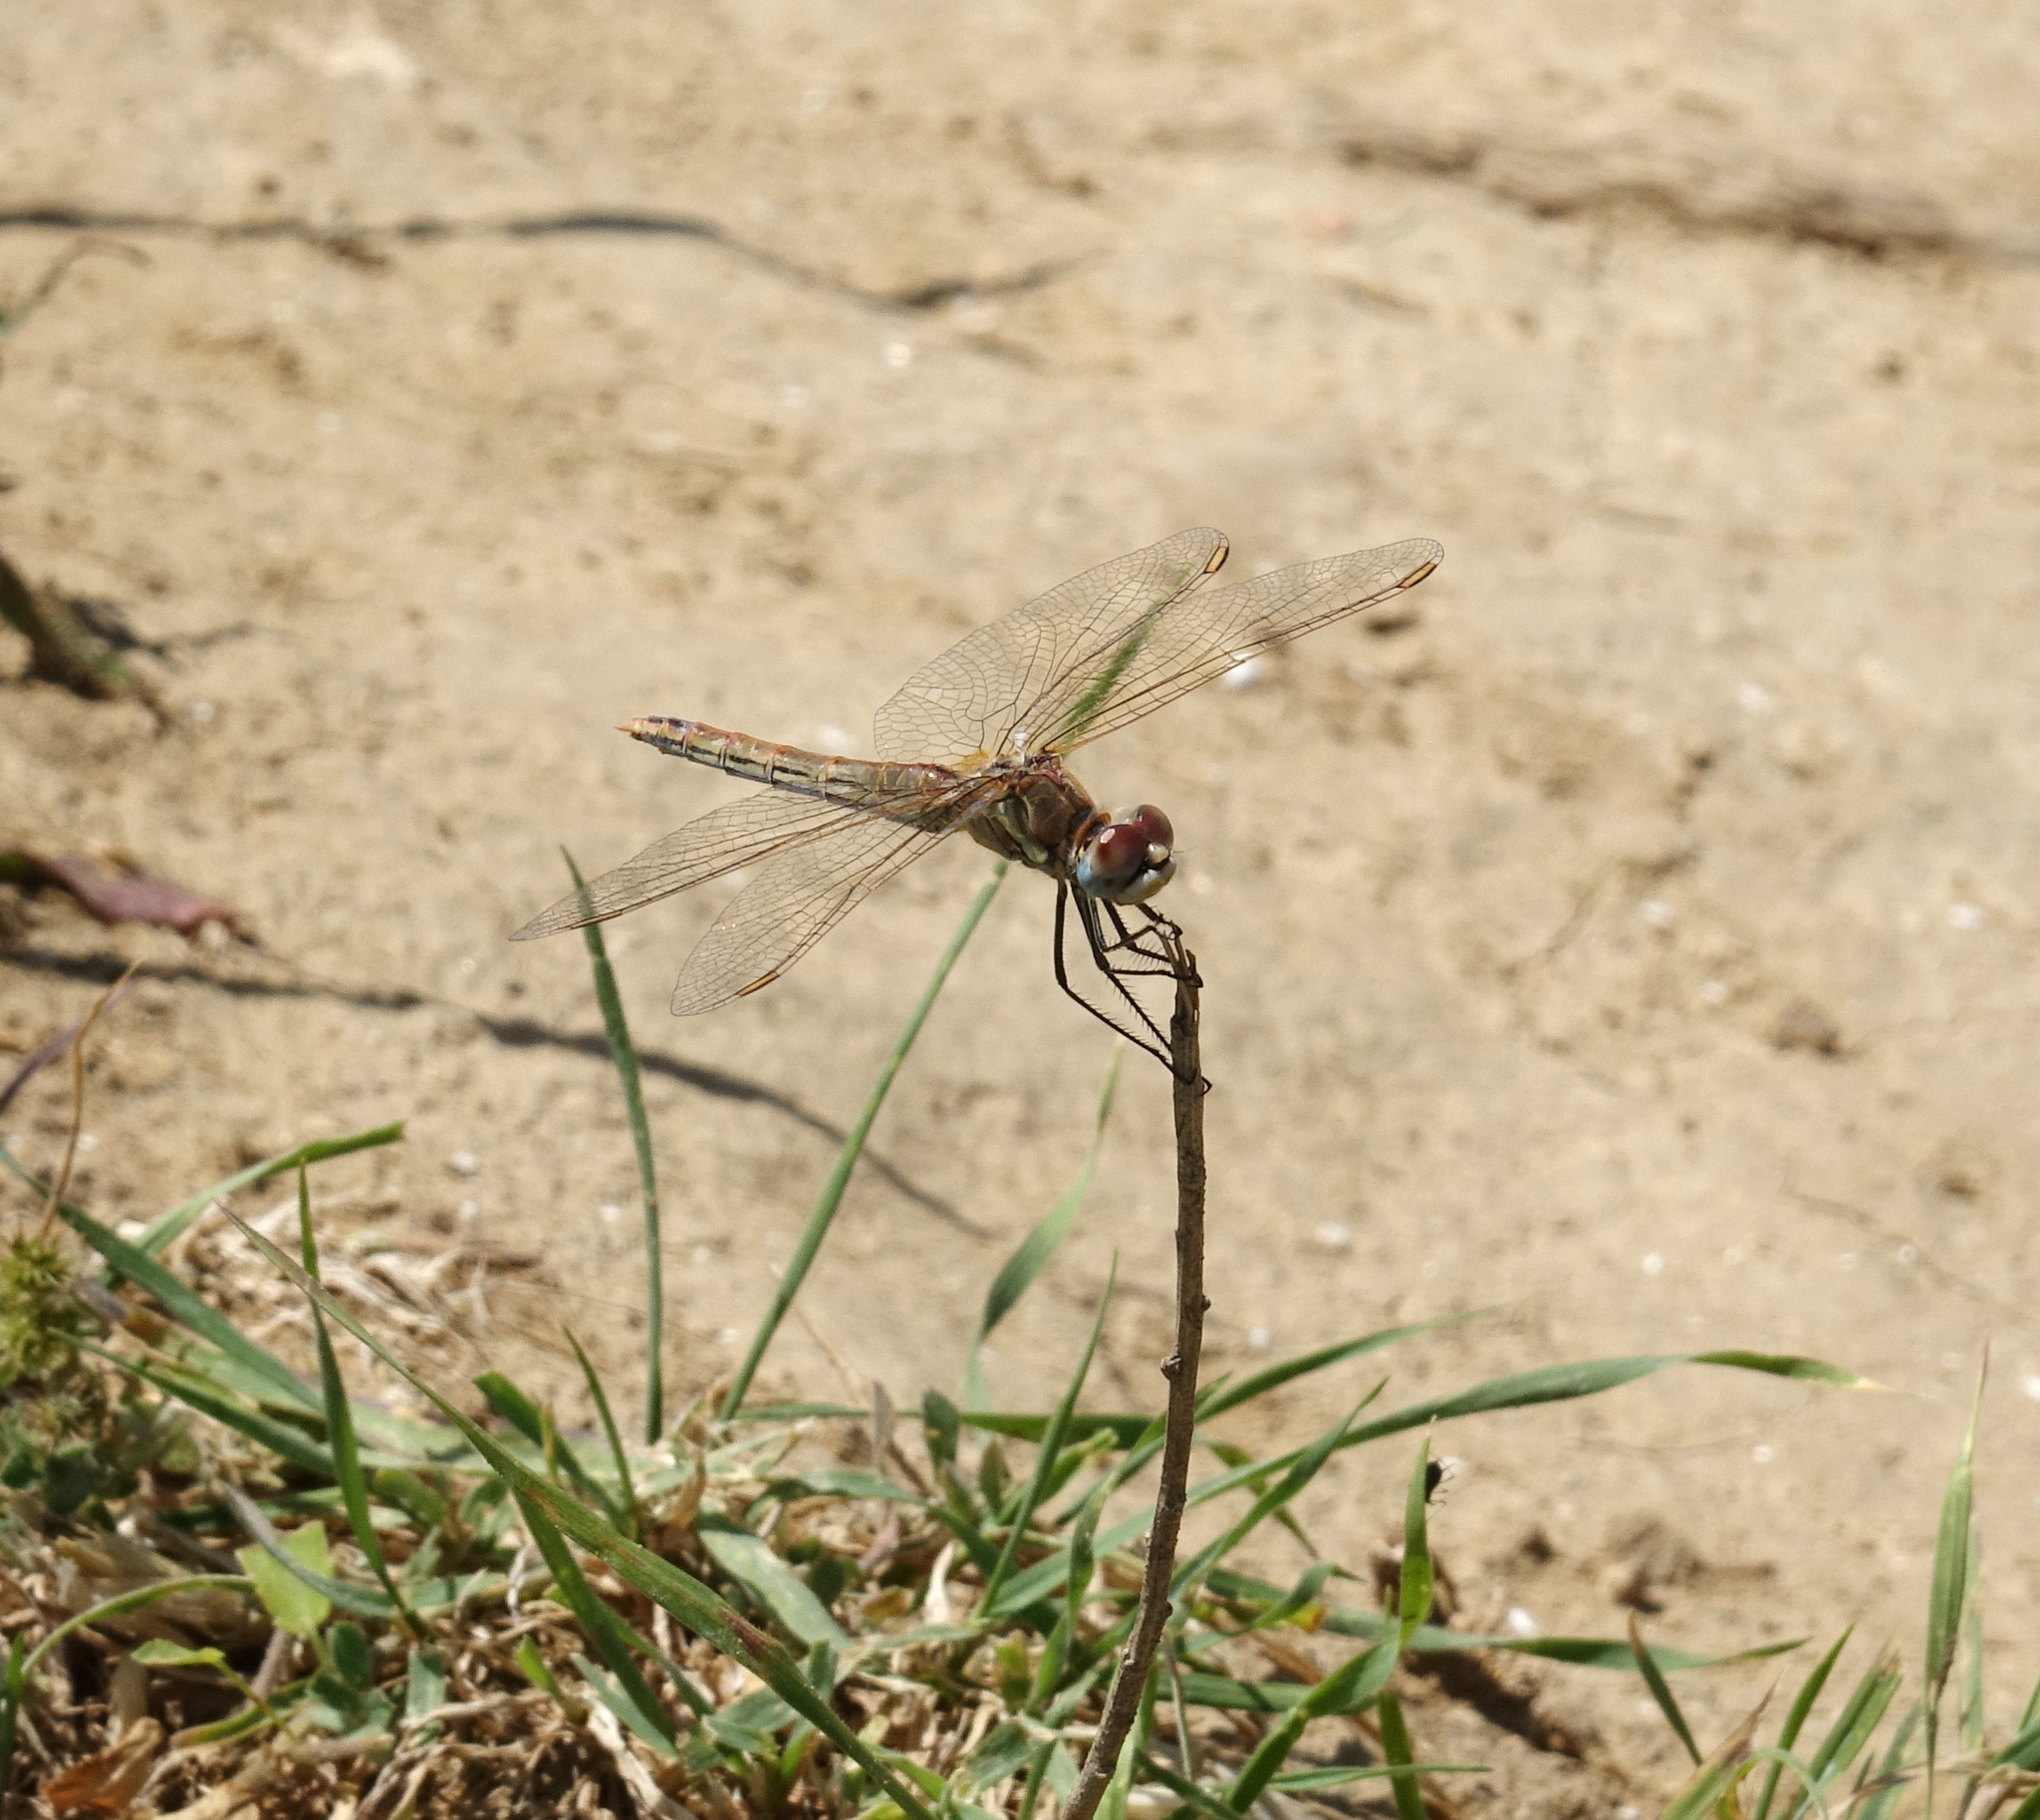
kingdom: Animalia
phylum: Arthropoda
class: Insecta
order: Odonata
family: Libellulidae
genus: Sympetrum
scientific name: Sympetrum fonscolombii
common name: Red-veined darter
